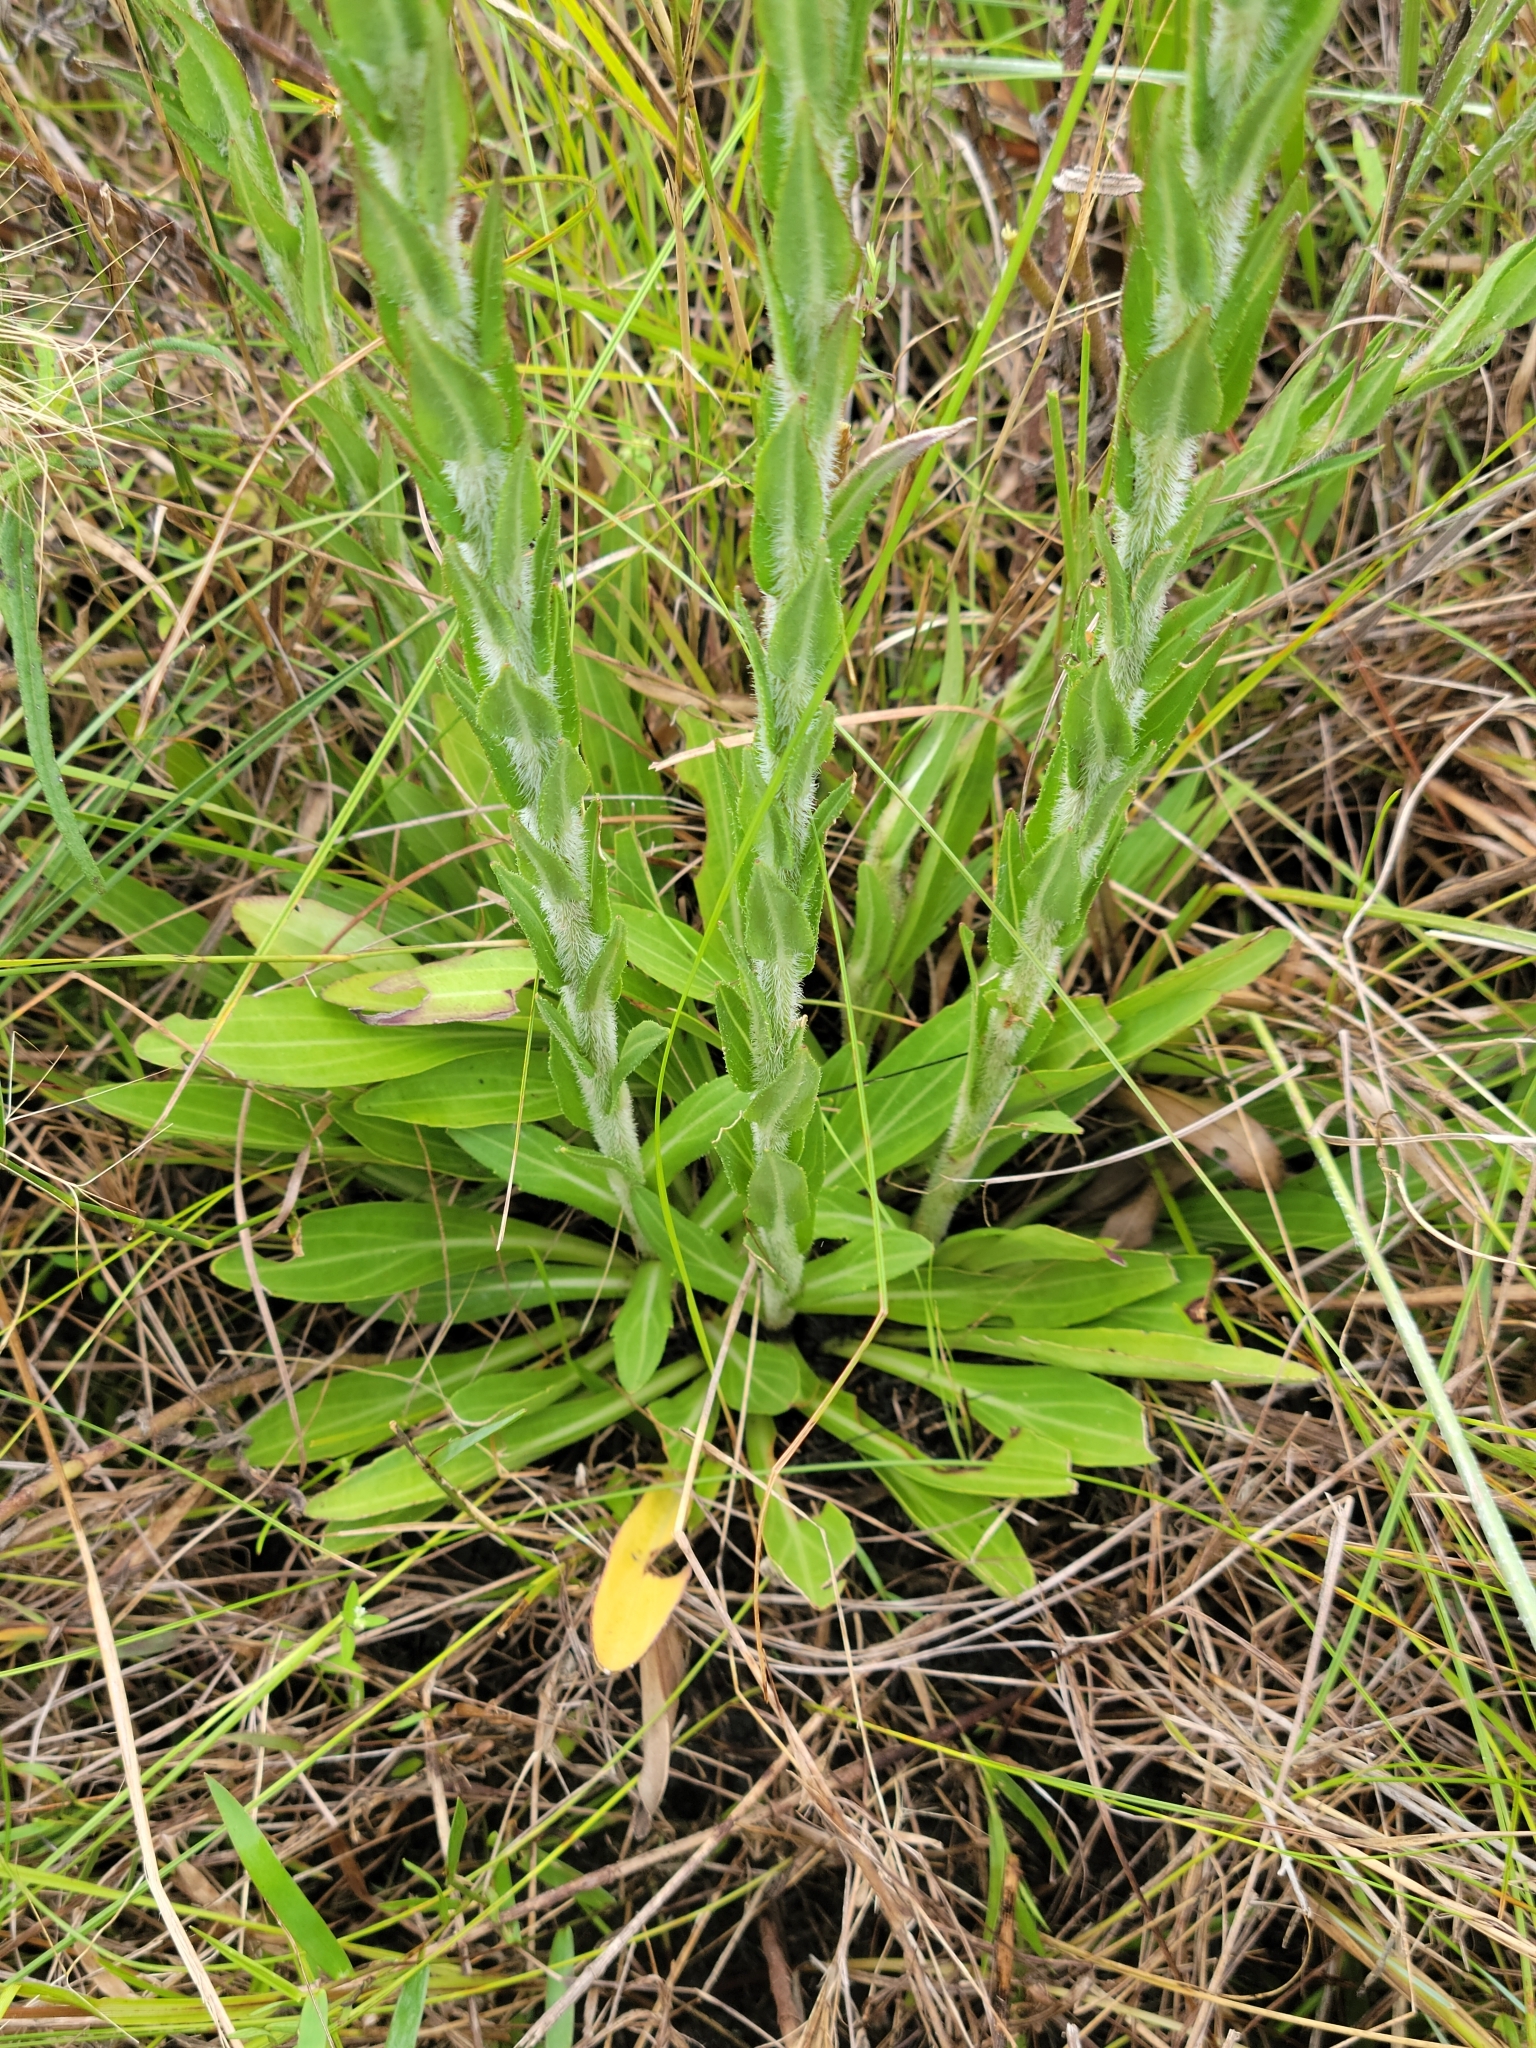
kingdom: Plantae
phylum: Tracheophyta
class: Magnoliopsida
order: Asterales
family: Asteraceae
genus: Carphephorus
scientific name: Carphephorus paniculatus
